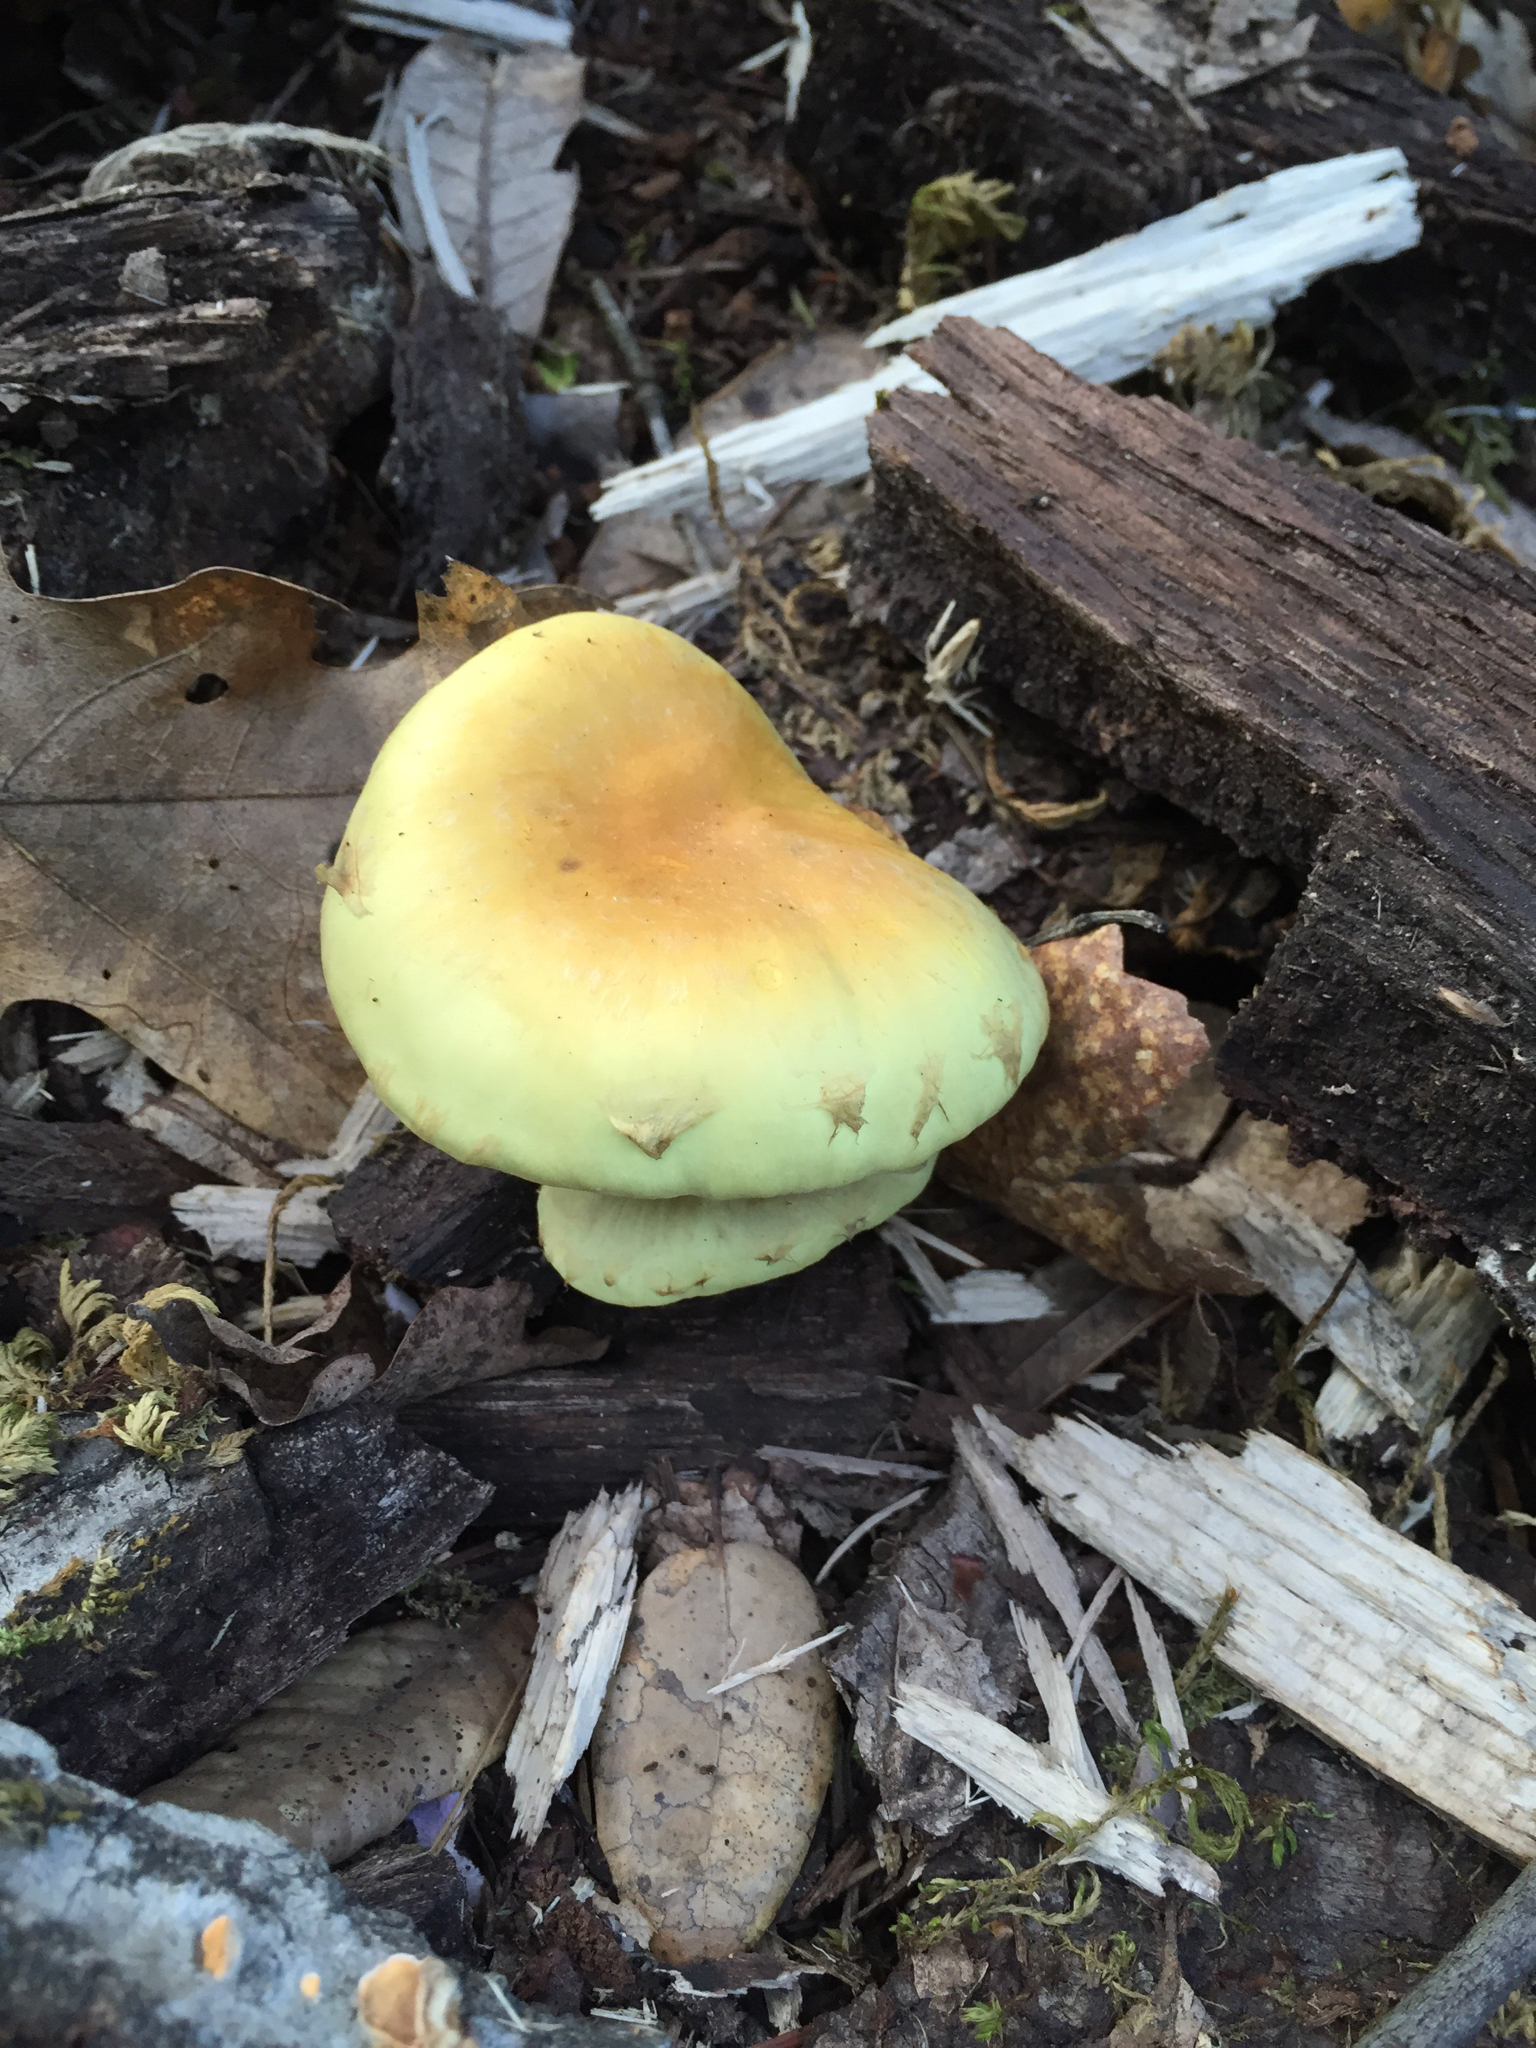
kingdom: Fungi
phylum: Basidiomycota
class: Agaricomycetes
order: Agaricales
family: Strophariaceae
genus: Hypholoma
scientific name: Hypholoma fasciculare
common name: Sulphur tuft
